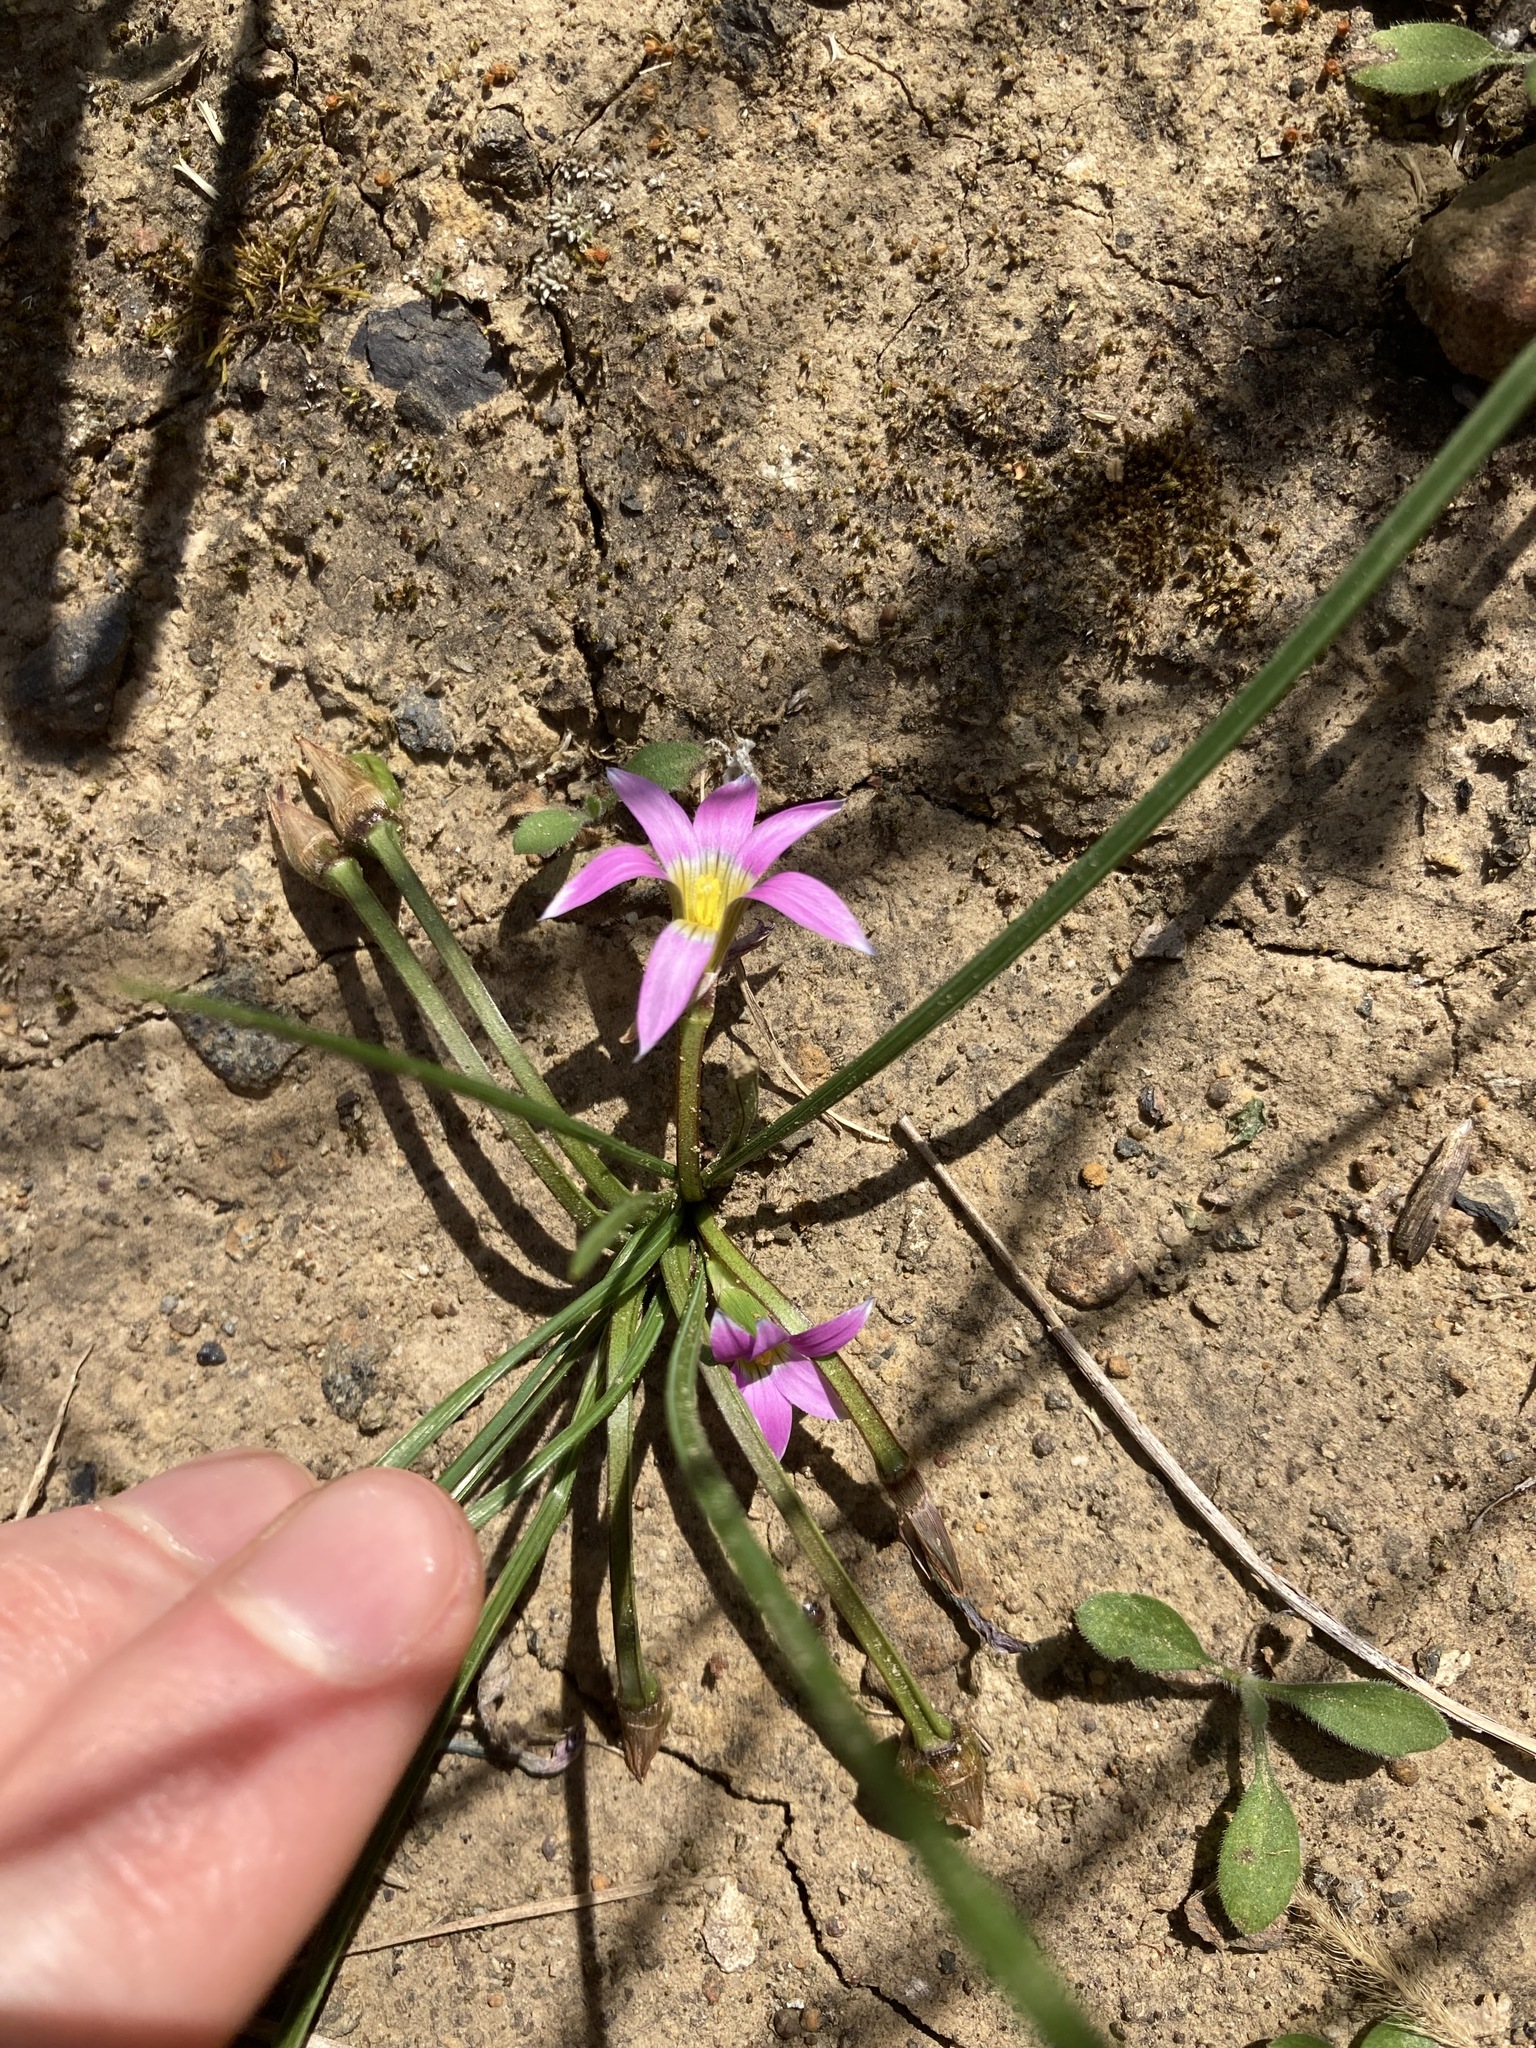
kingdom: Plantae
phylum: Tracheophyta
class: Liliopsida
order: Asparagales
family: Iridaceae
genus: Romulea
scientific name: Romulea rosea
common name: Oniongrass
